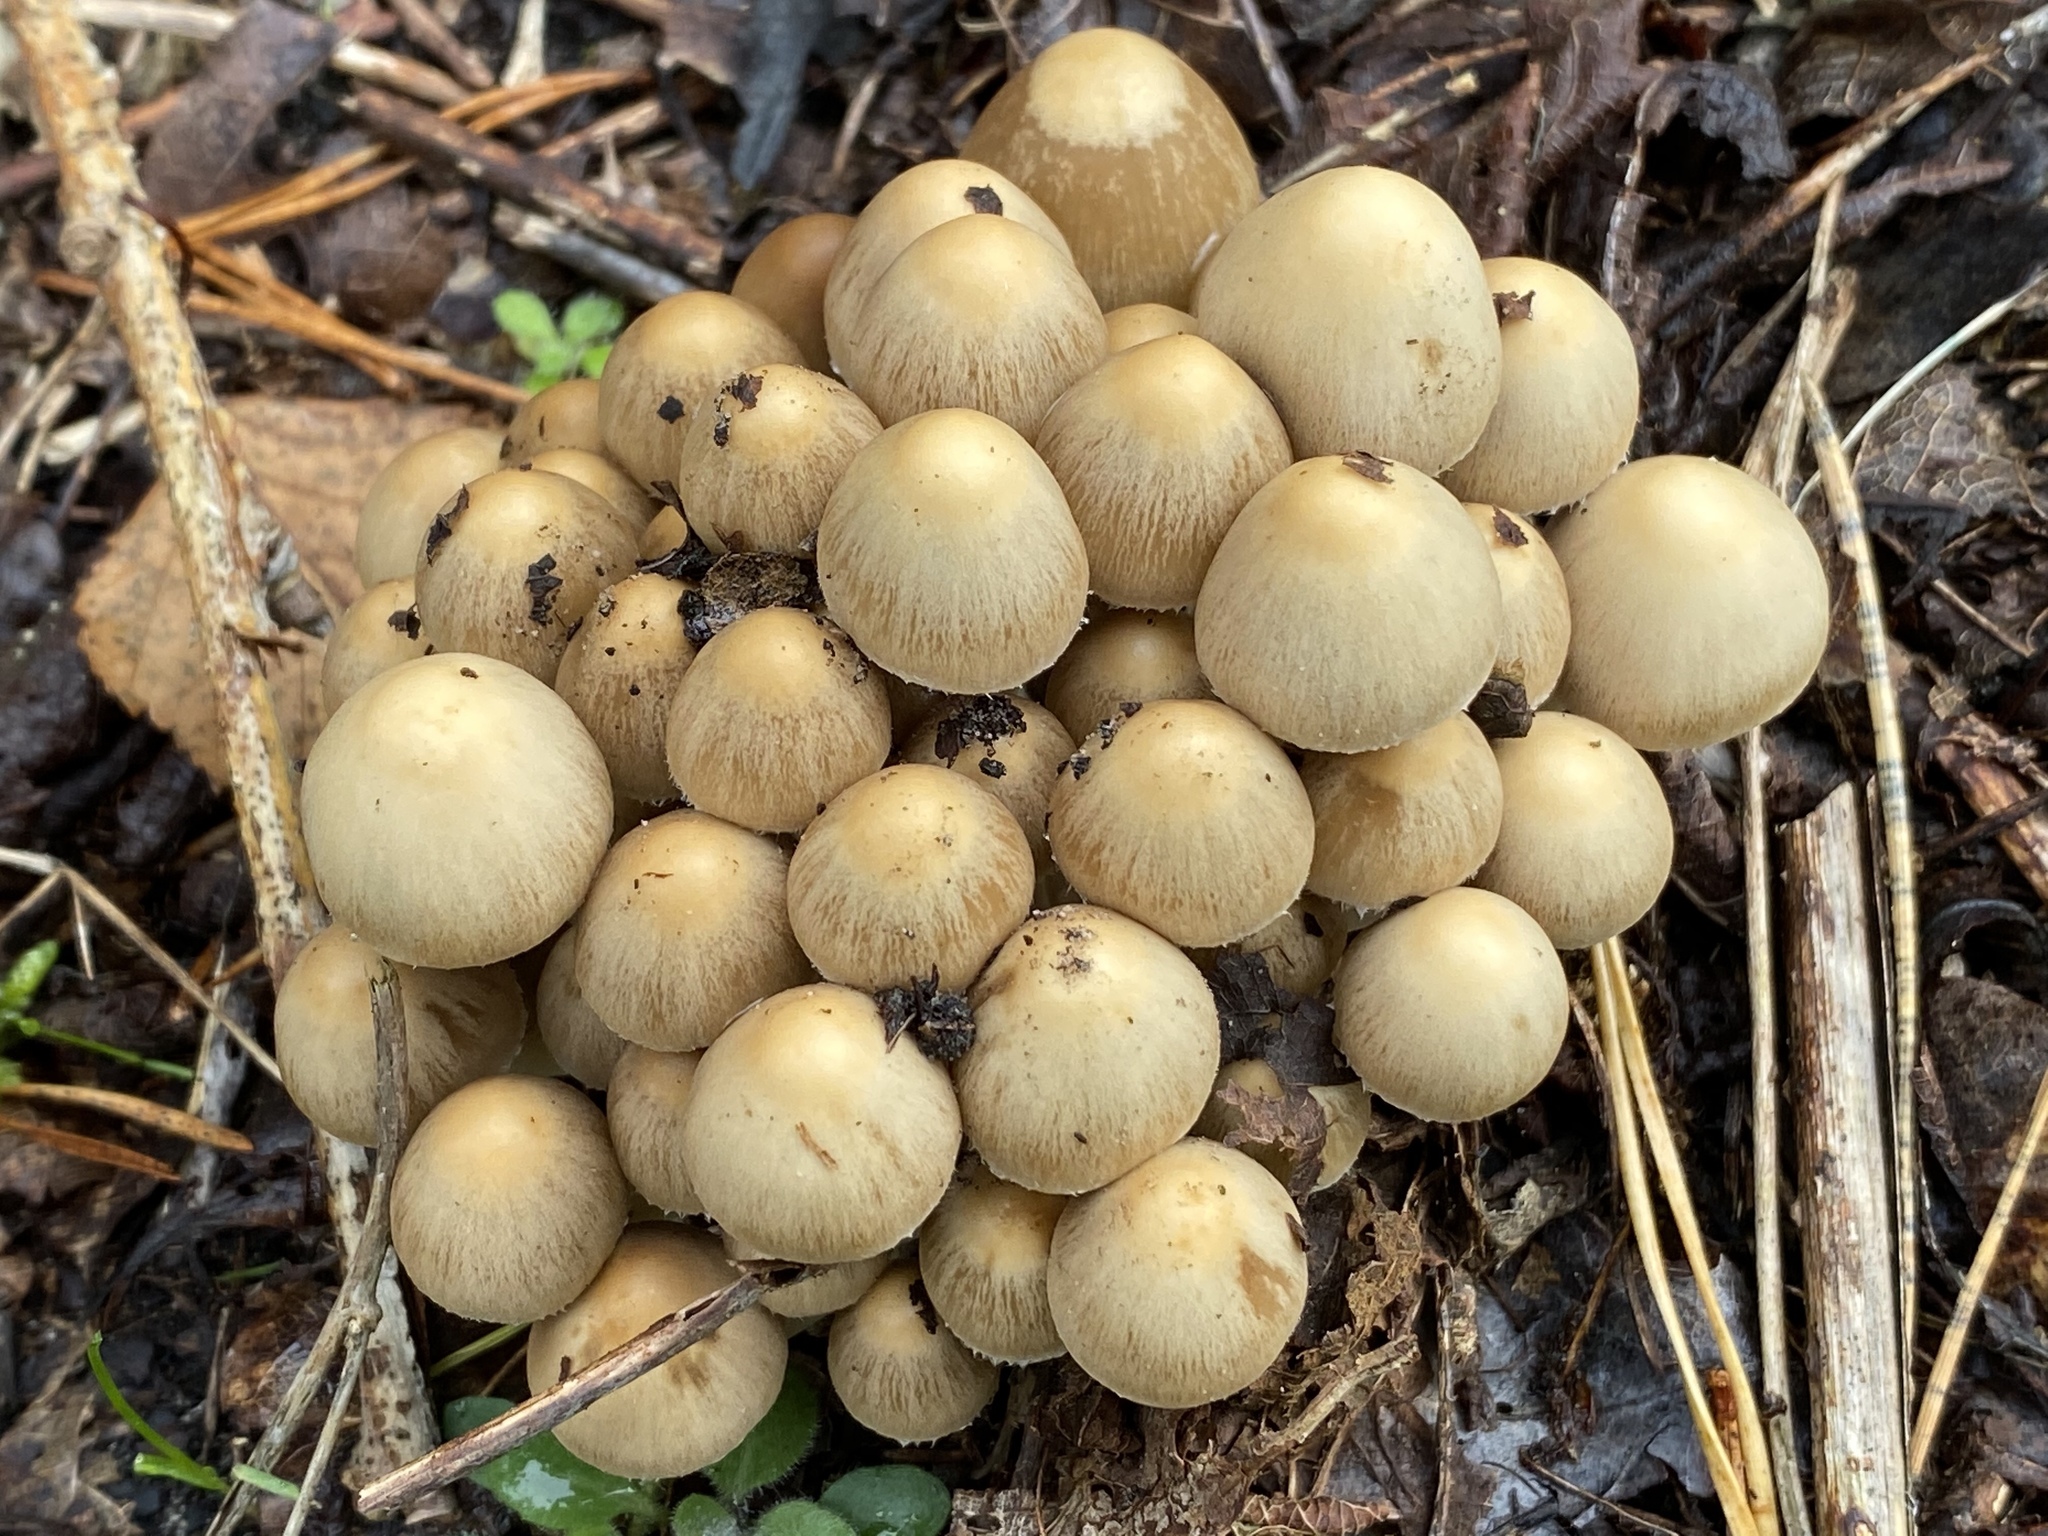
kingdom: Fungi
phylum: Basidiomycota
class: Agaricomycetes
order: Agaricales
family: Psathyrellaceae
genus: Psathyrella
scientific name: Psathyrella piluliformis
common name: Common stump brittlestem
